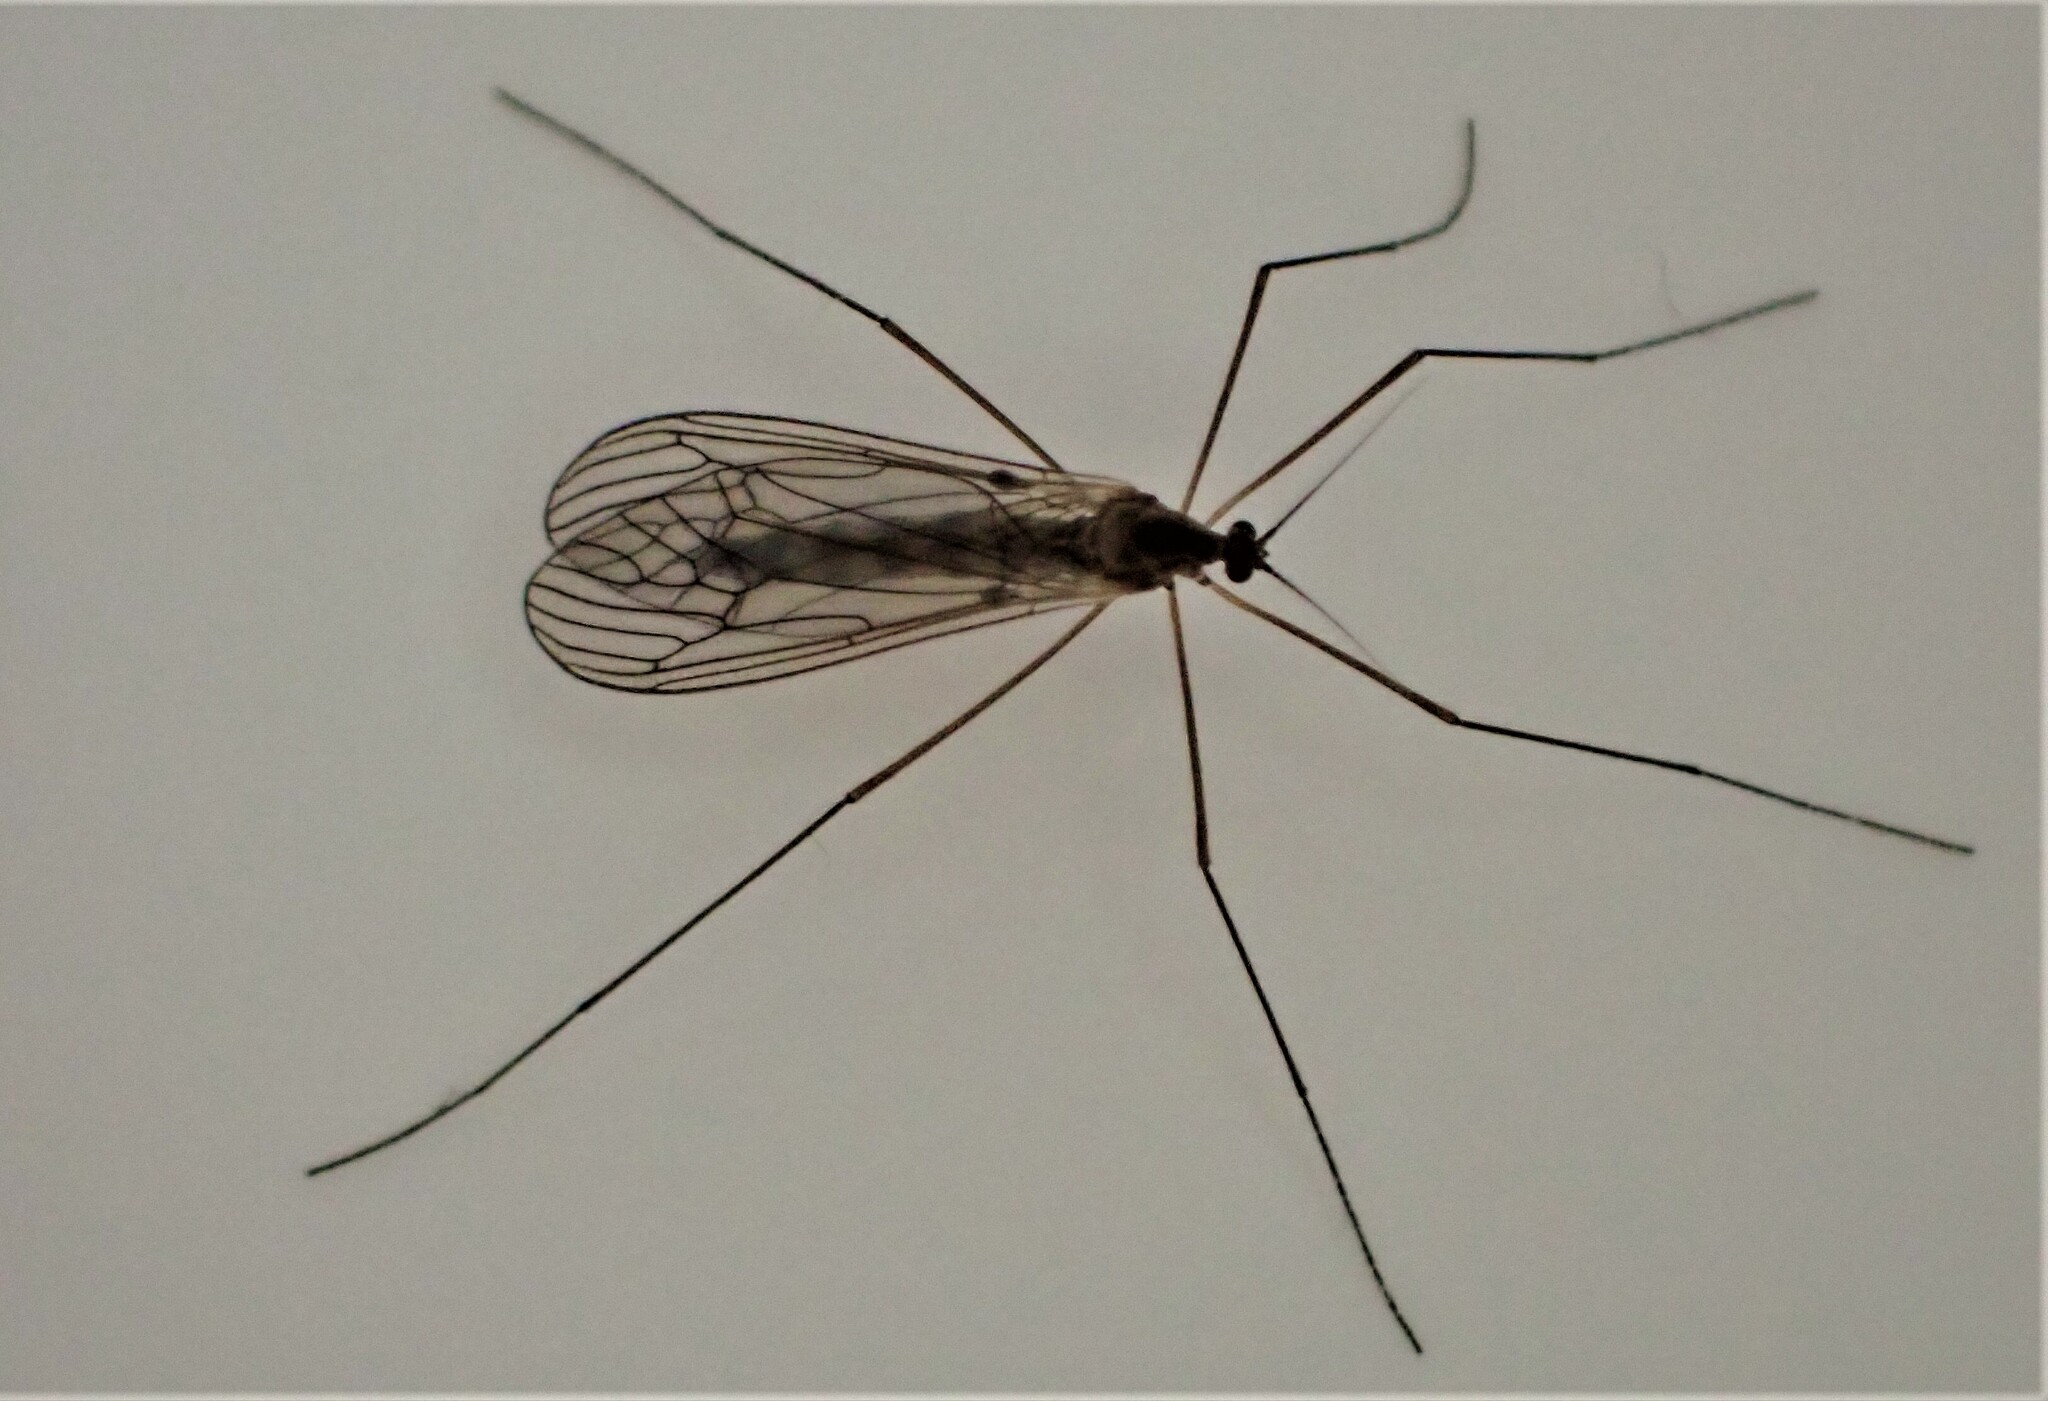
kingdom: Animalia
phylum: Arthropoda
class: Insecta
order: Diptera
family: Trichoceridae
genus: Trichocera
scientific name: Trichocera annulata
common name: Winter gnat
